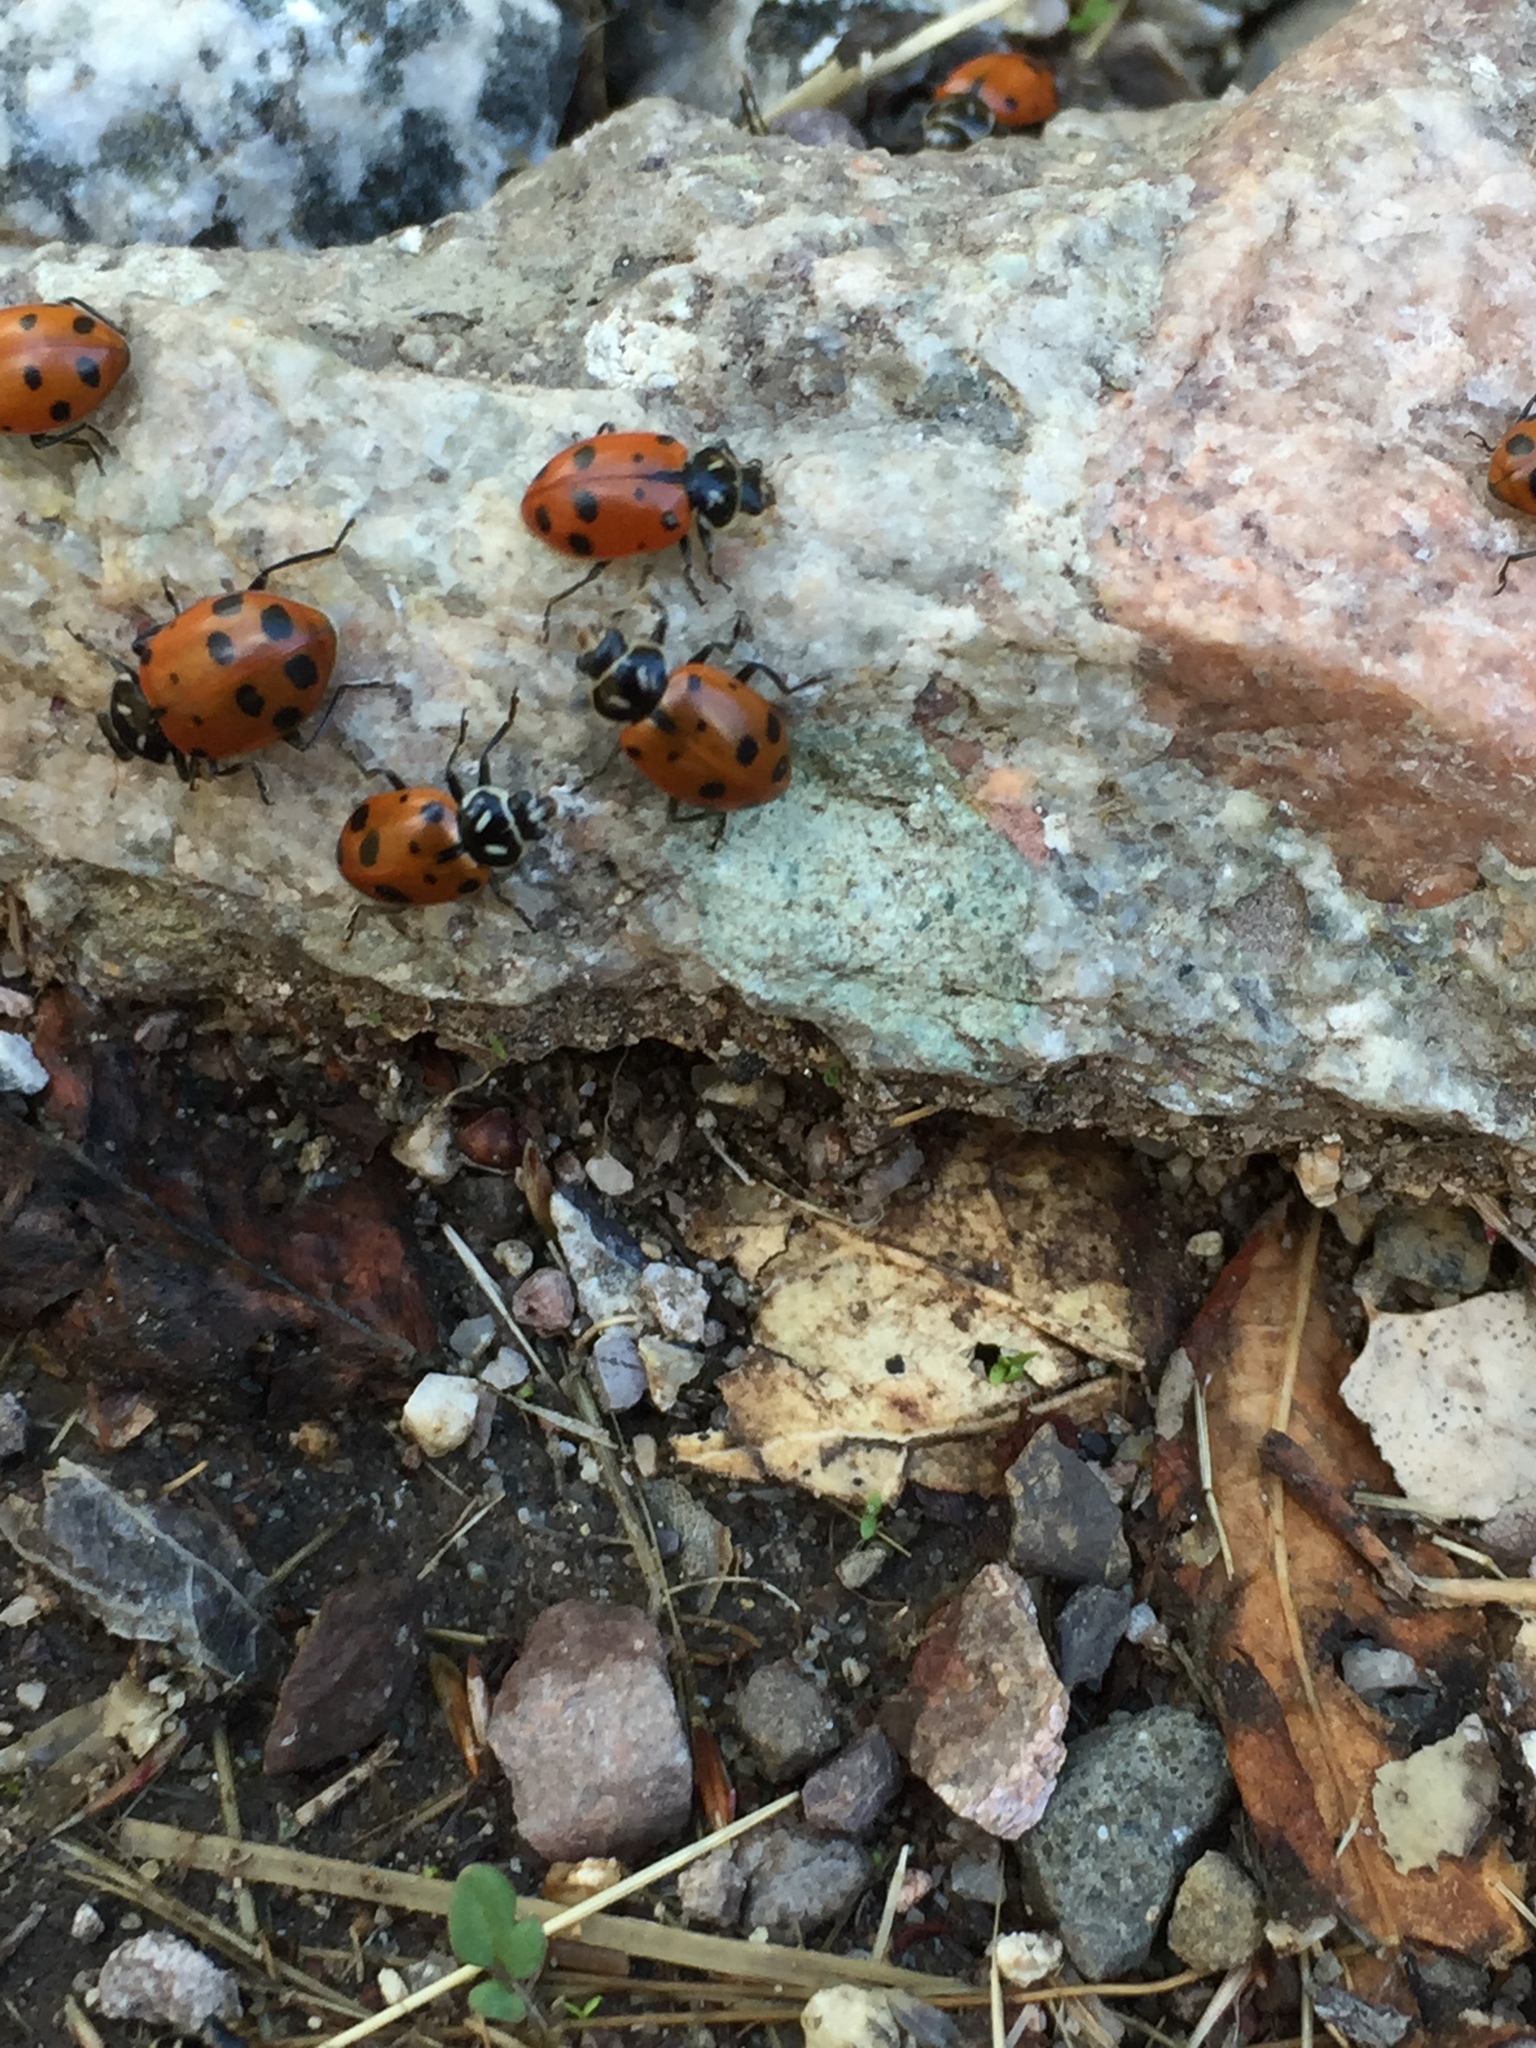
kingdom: Animalia
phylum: Arthropoda
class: Insecta
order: Coleoptera
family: Coccinellidae
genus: Hippodamia
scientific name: Hippodamia convergens
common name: Convergent lady beetle
